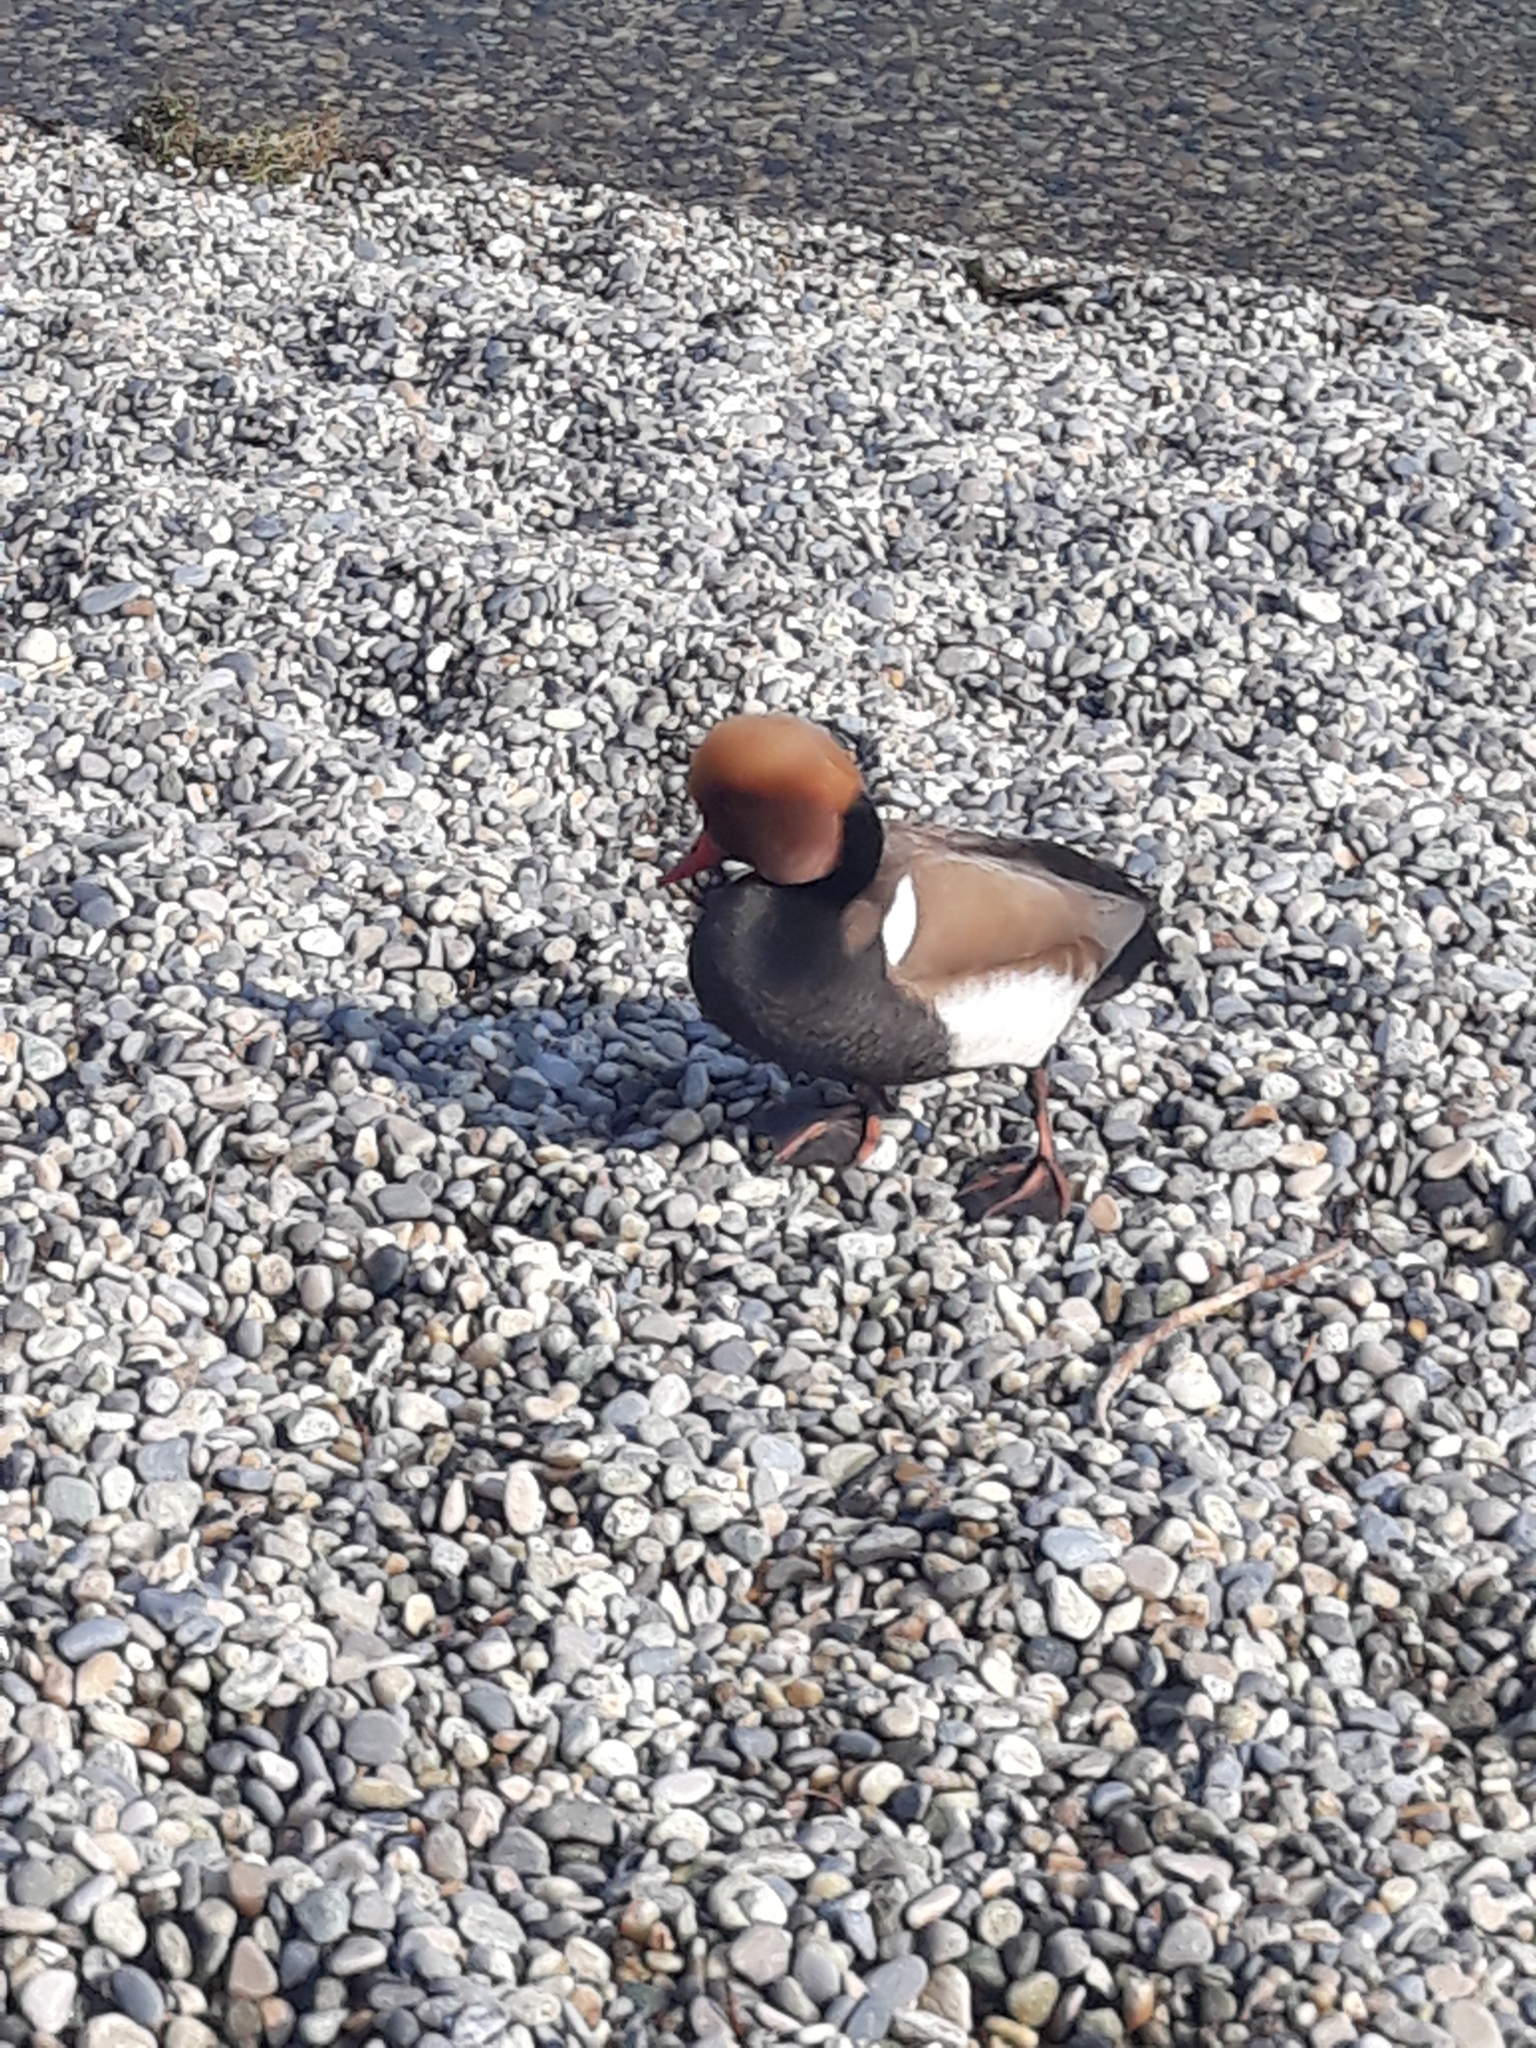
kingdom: Animalia
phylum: Chordata
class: Aves
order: Anseriformes
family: Anatidae
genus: Netta
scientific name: Netta rufina
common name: Red-crested pochard
